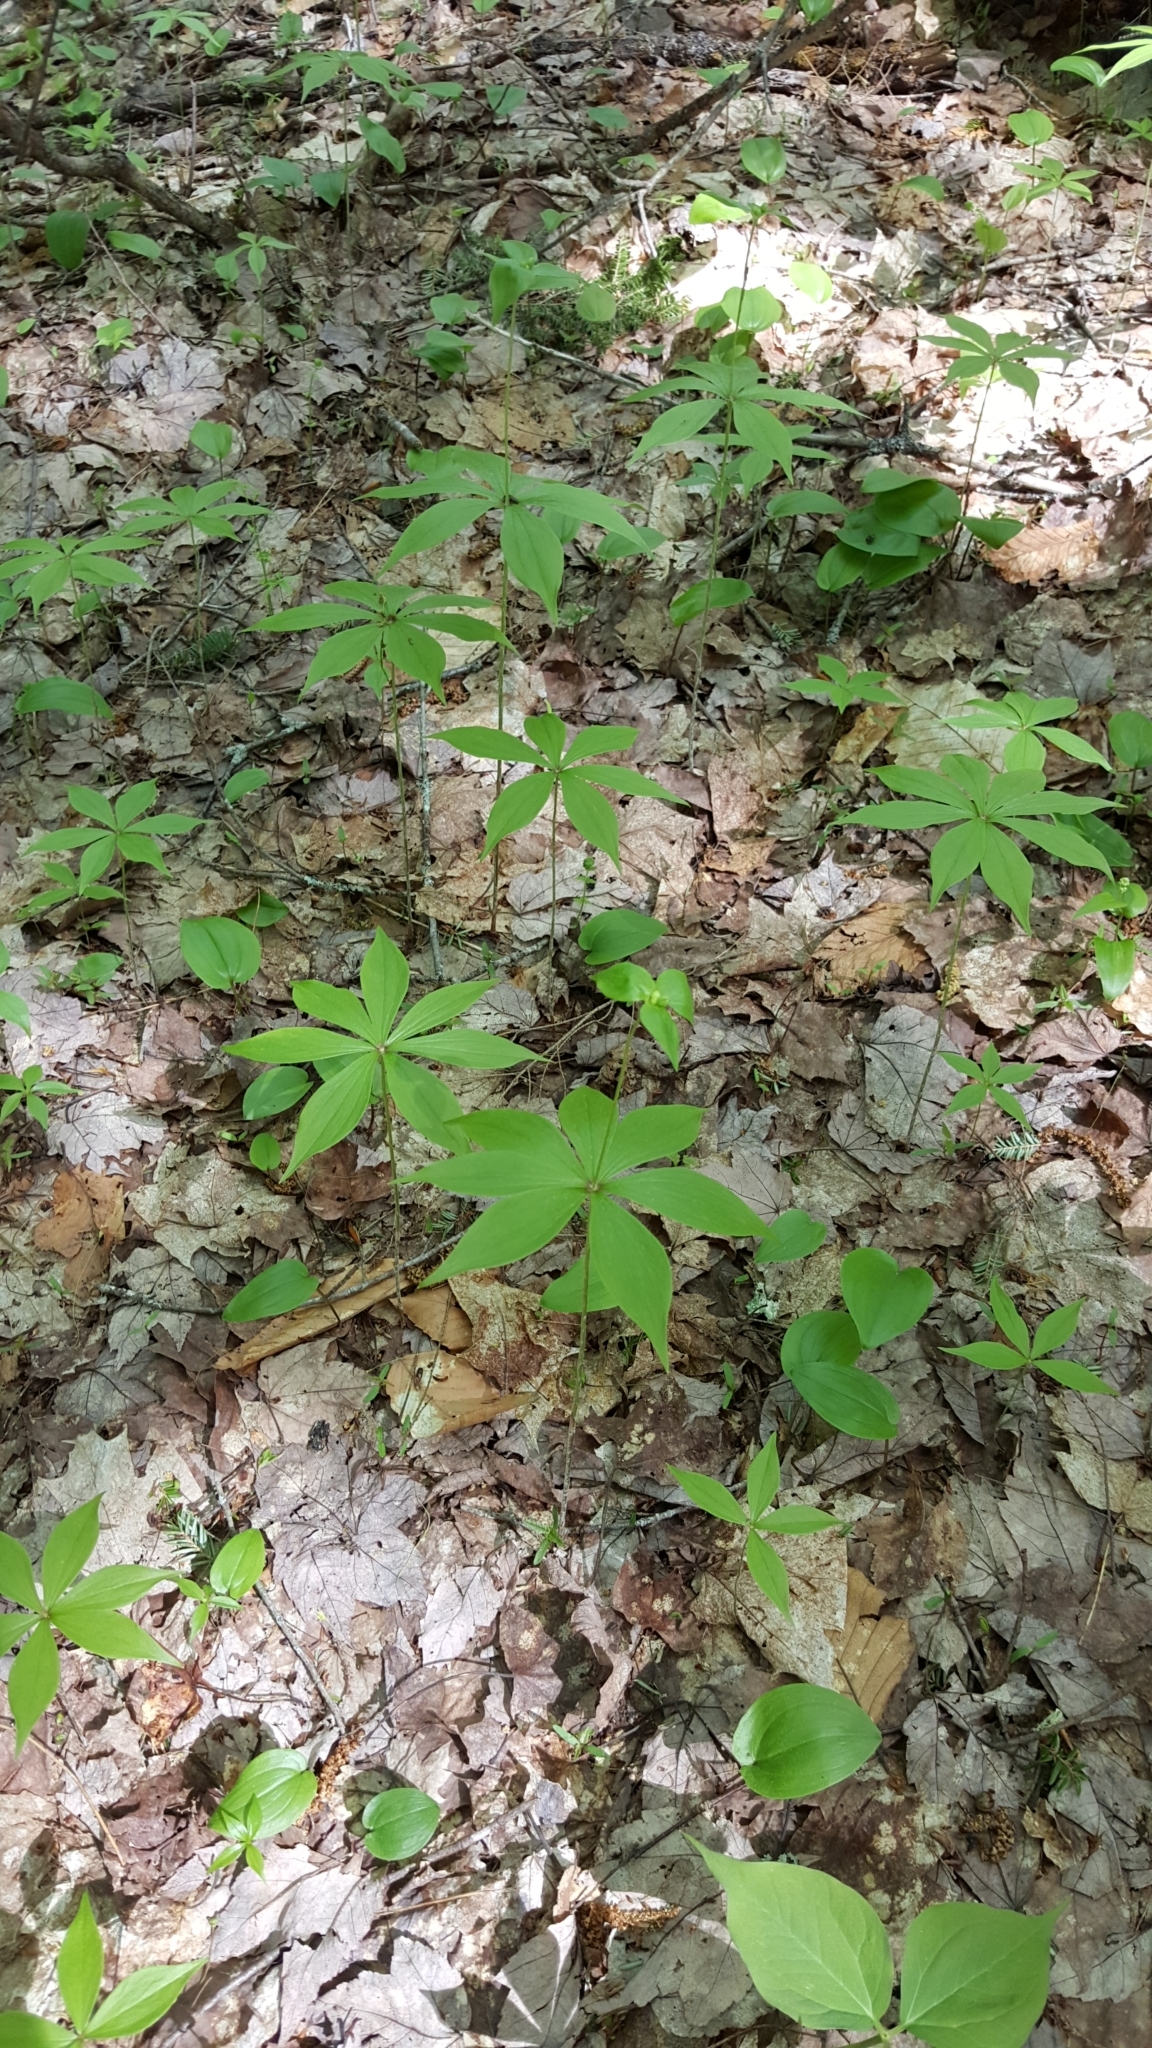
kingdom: Plantae
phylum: Tracheophyta
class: Liliopsida
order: Liliales
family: Liliaceae
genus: Medeola
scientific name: Medeola virginiana
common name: Indian cucumber-root
